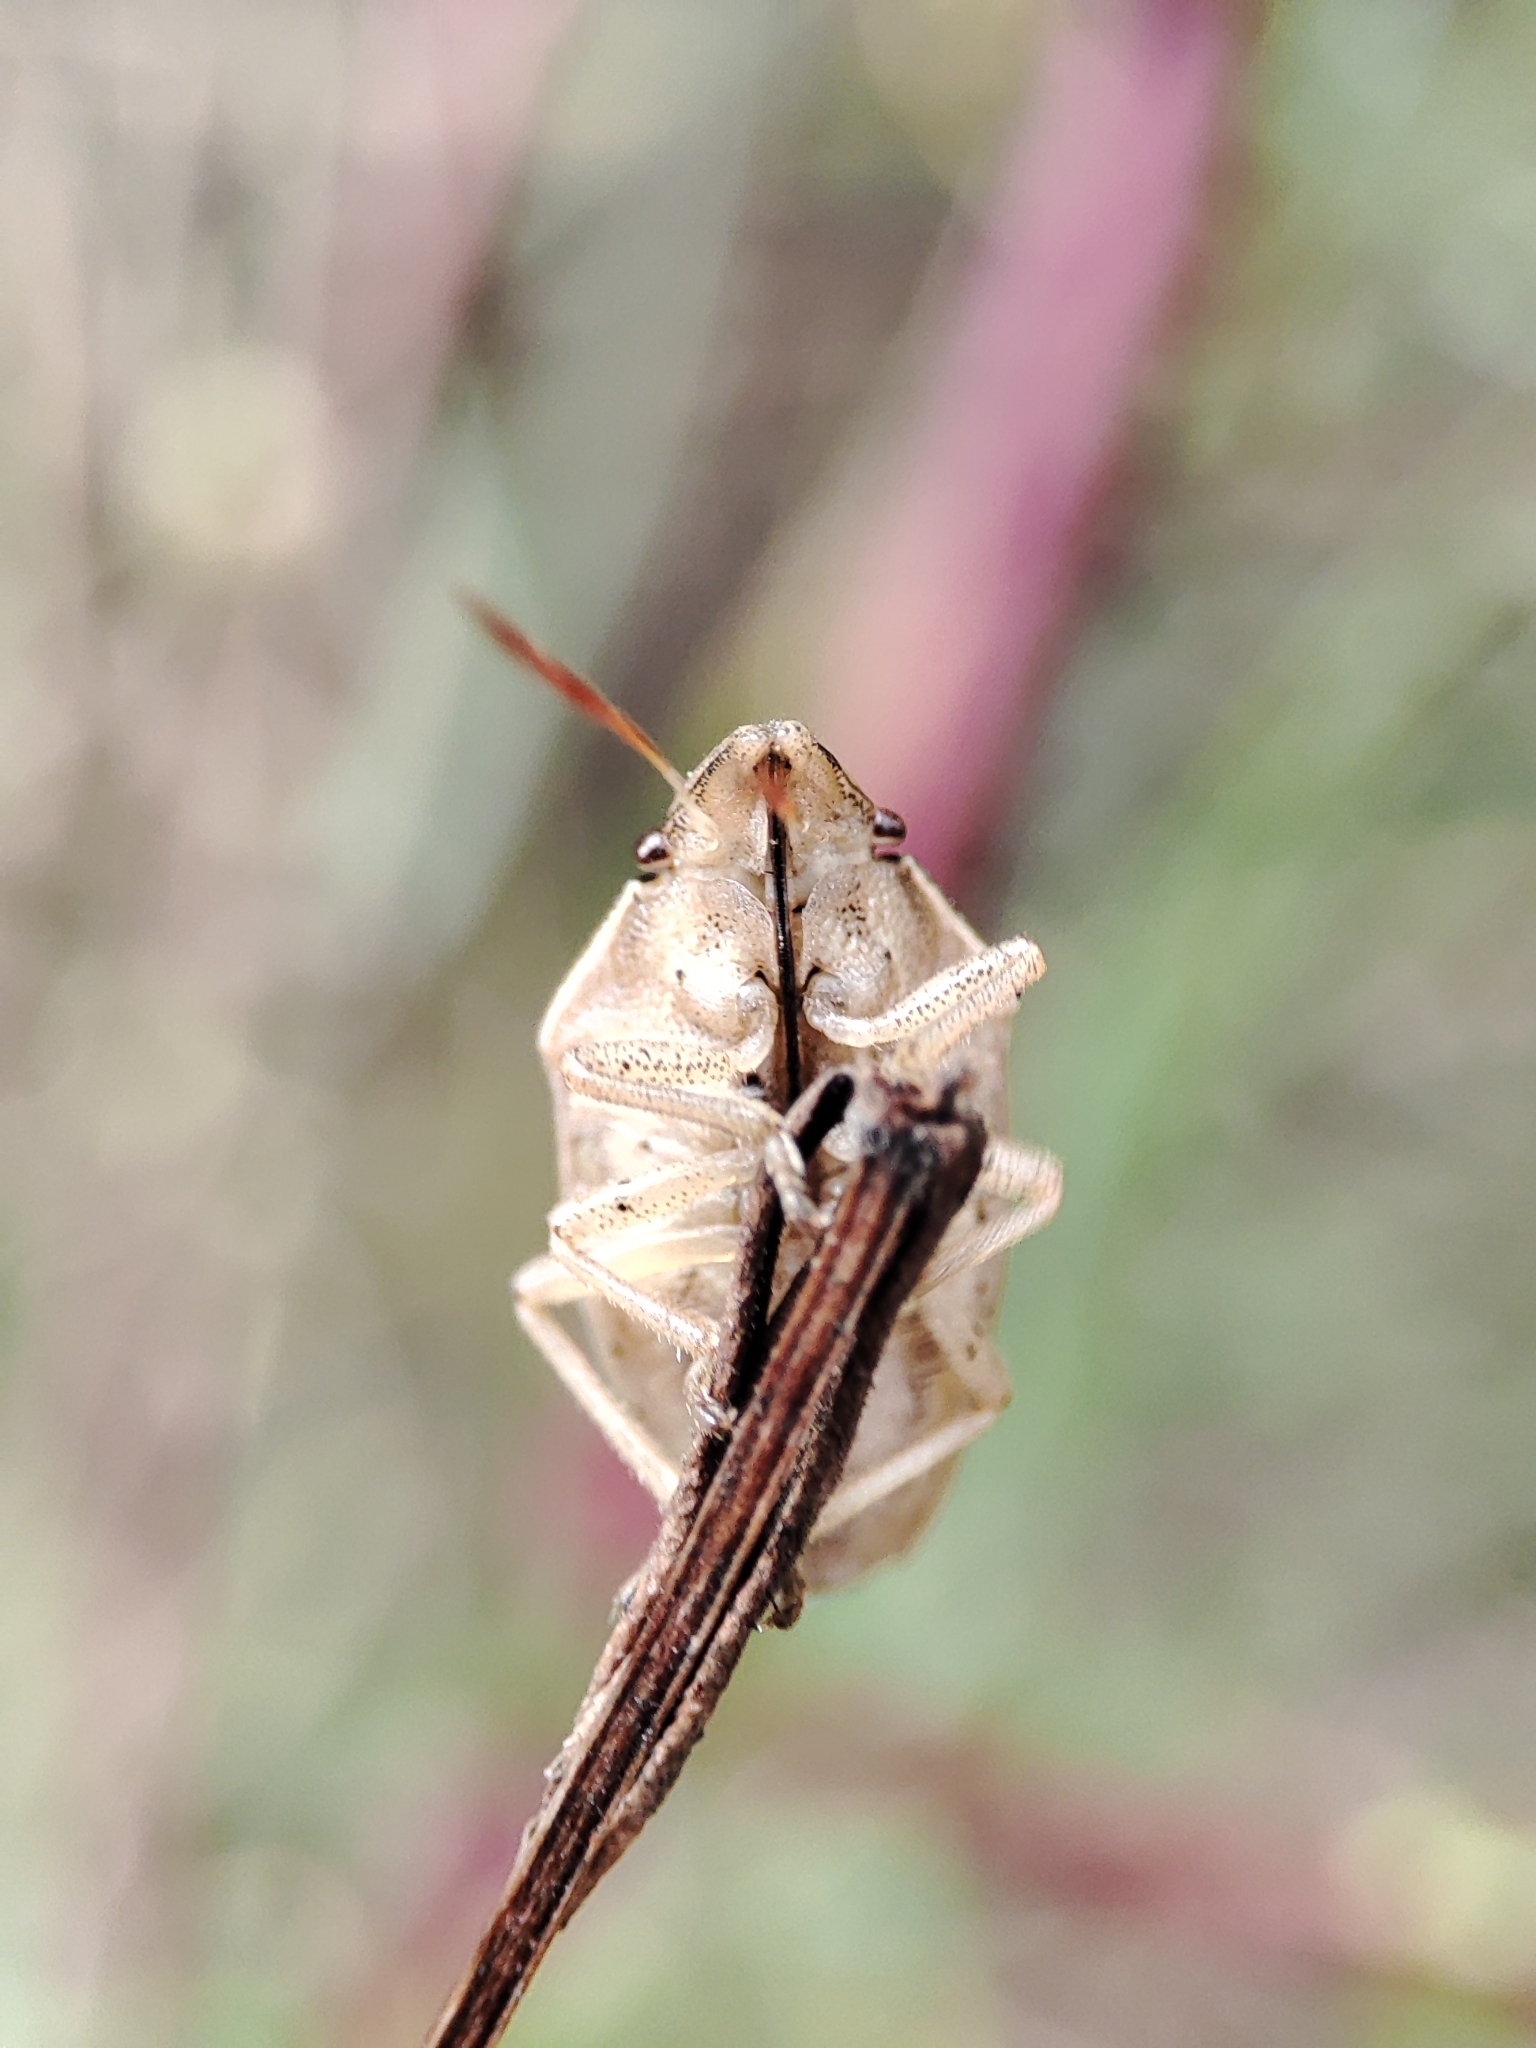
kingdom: Animalia
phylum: Arthropoda
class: Insecta
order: Hemiptera
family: Pentatomidae
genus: Aelia
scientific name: Aelia acuminata
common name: Bishop's mitre
